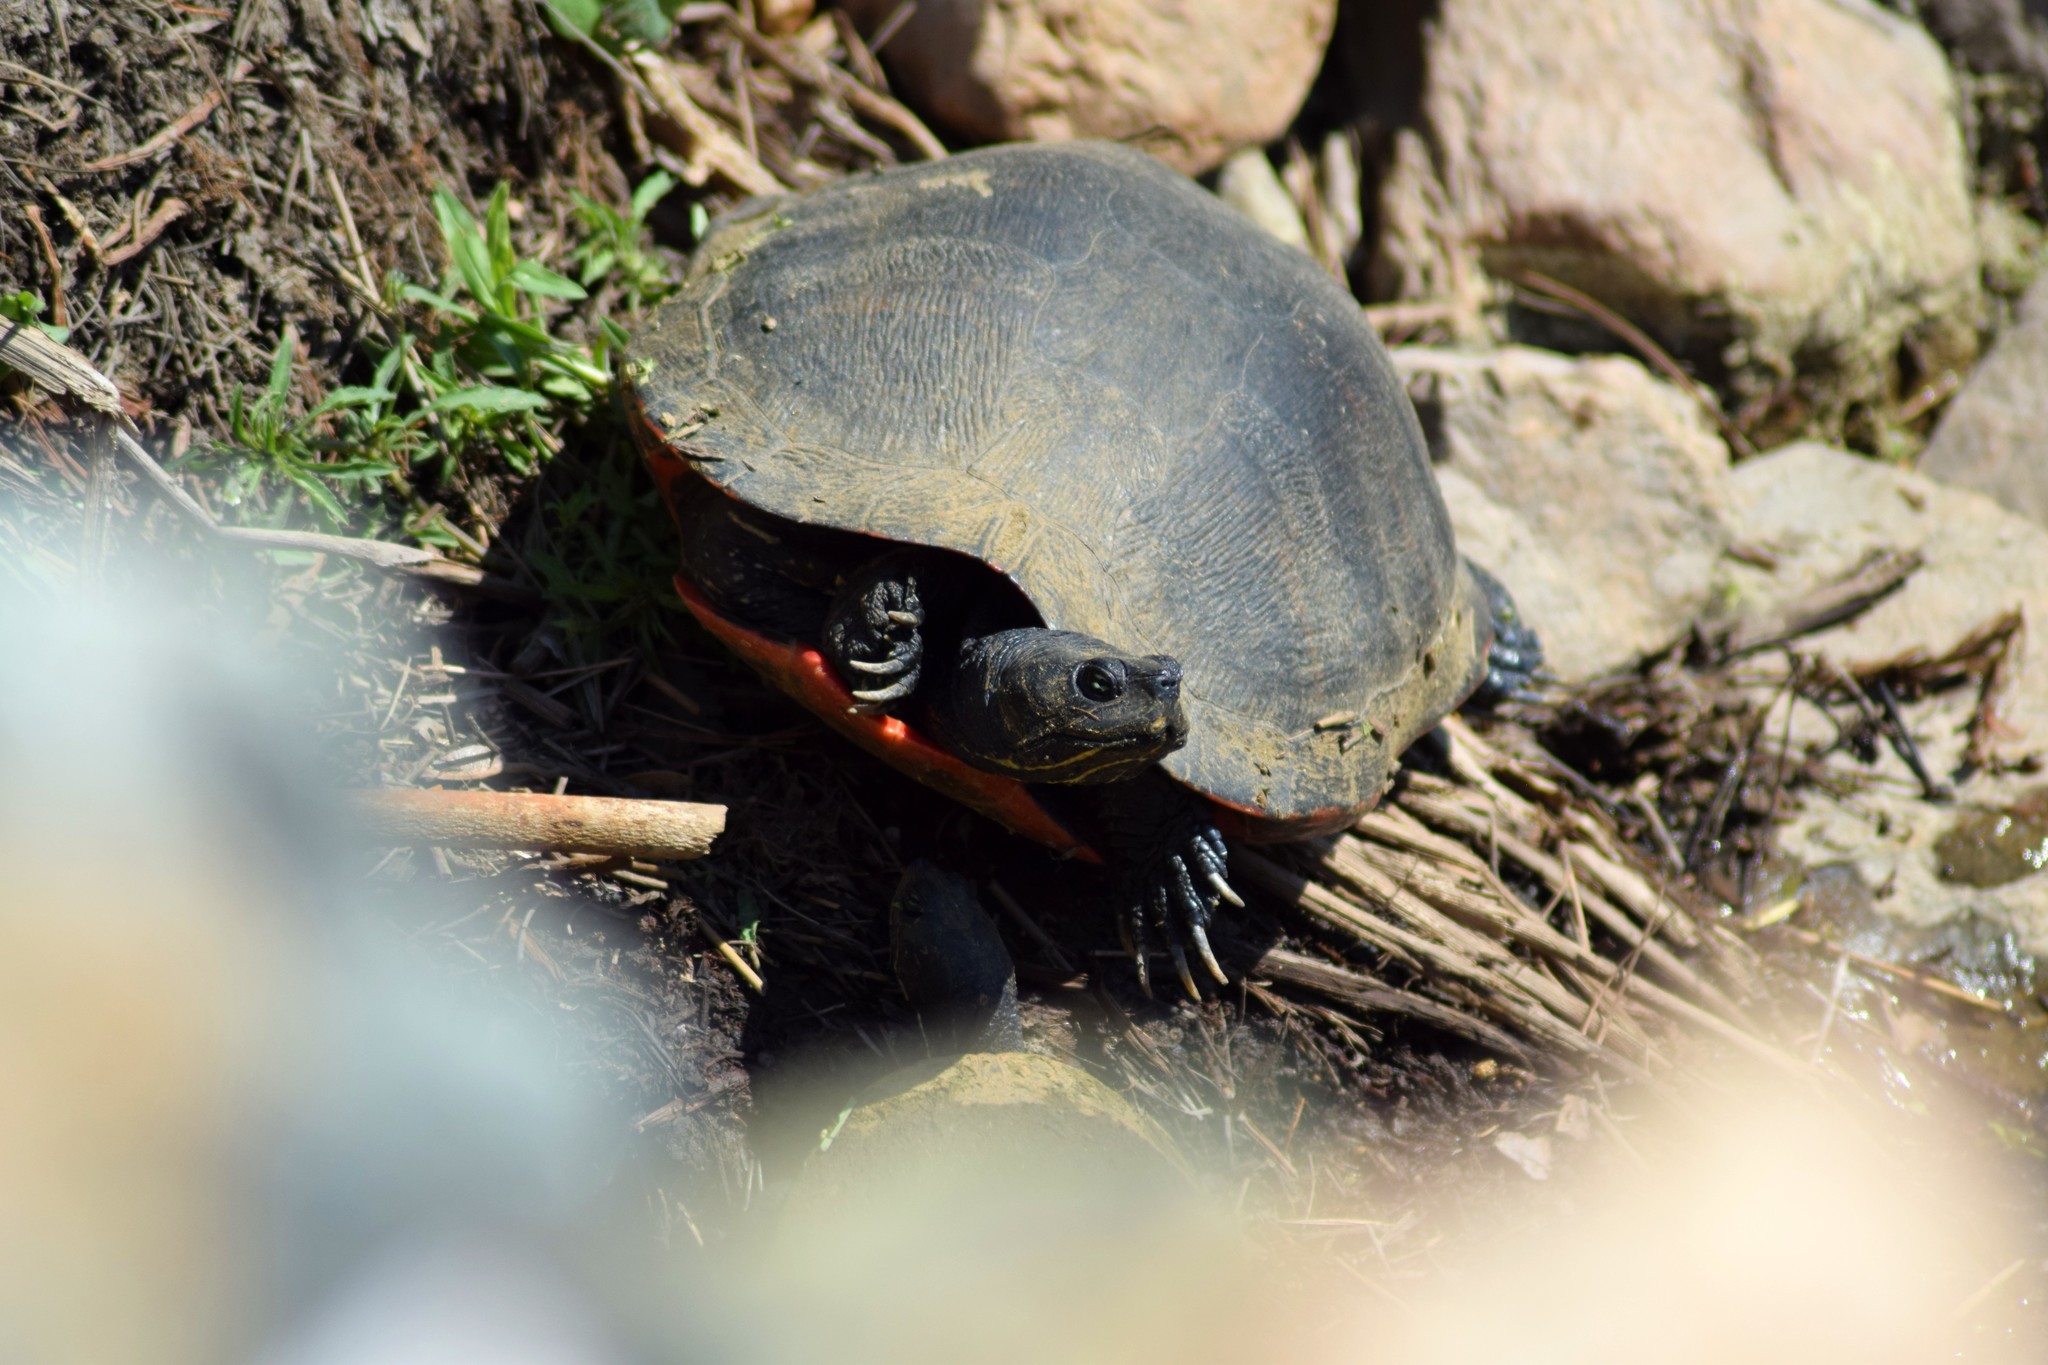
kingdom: Animalia
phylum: Chordata
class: Testudines
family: Emydidae
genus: Pseudemys
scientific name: Pseudemys rubriventris
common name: American red-bellied turtle
